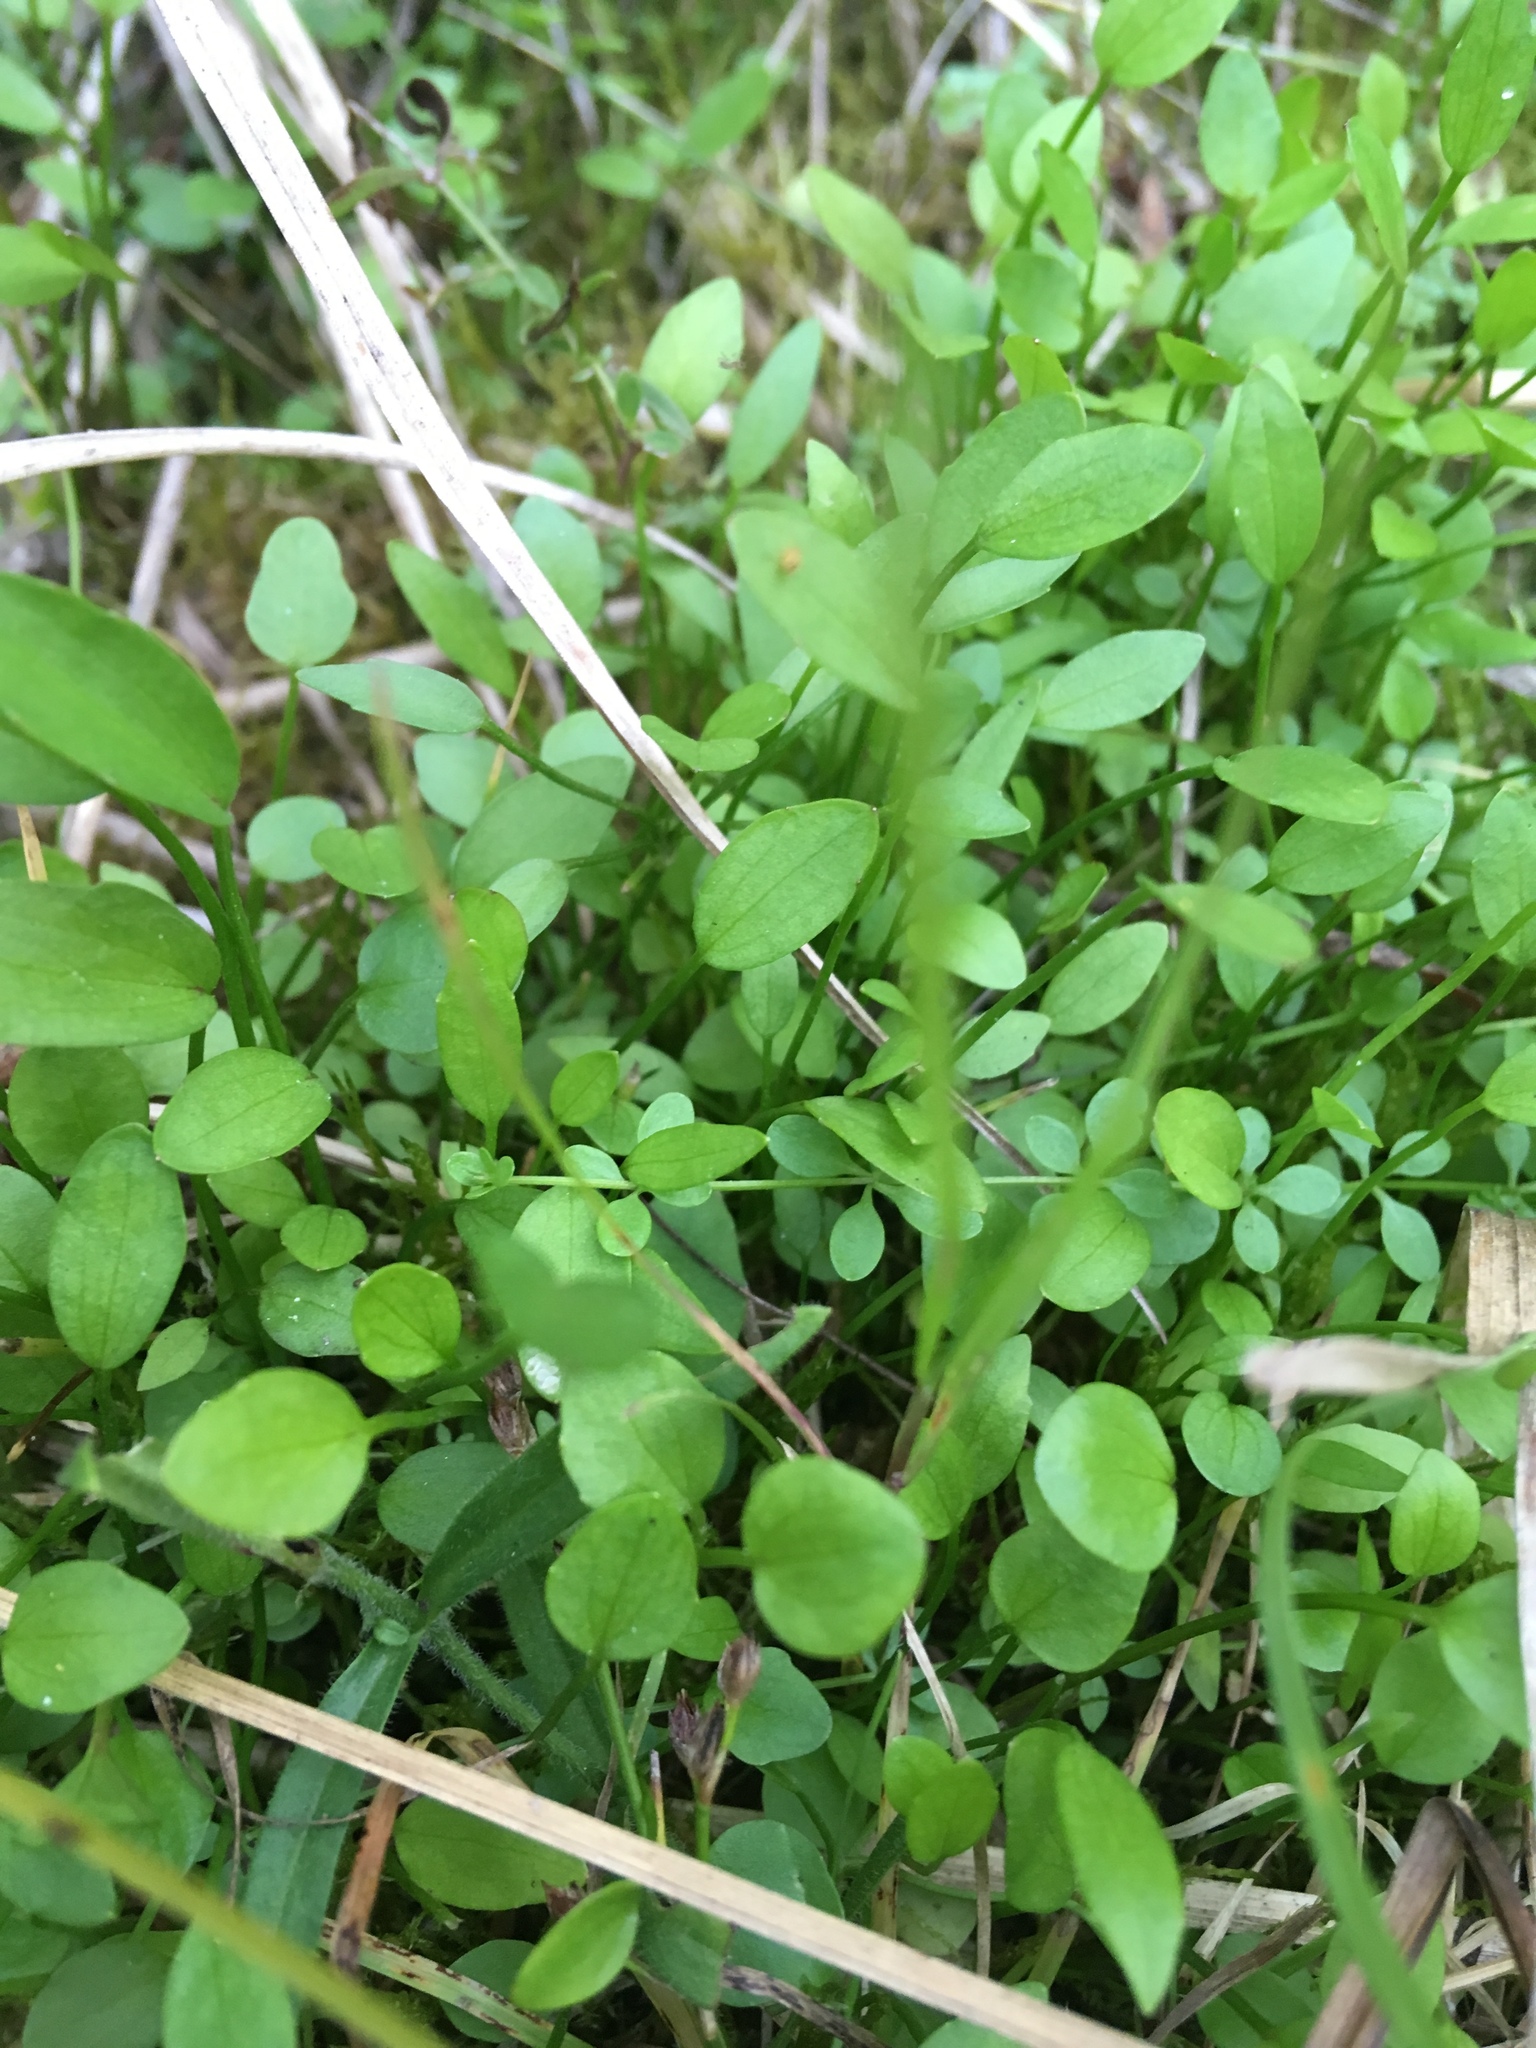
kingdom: Plantae
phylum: Tracheophyta
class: Magnoliopsida
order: Gentianales
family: Rubiaceae
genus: Galium
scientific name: Galium palustre
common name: Common marsh-bedstraw
